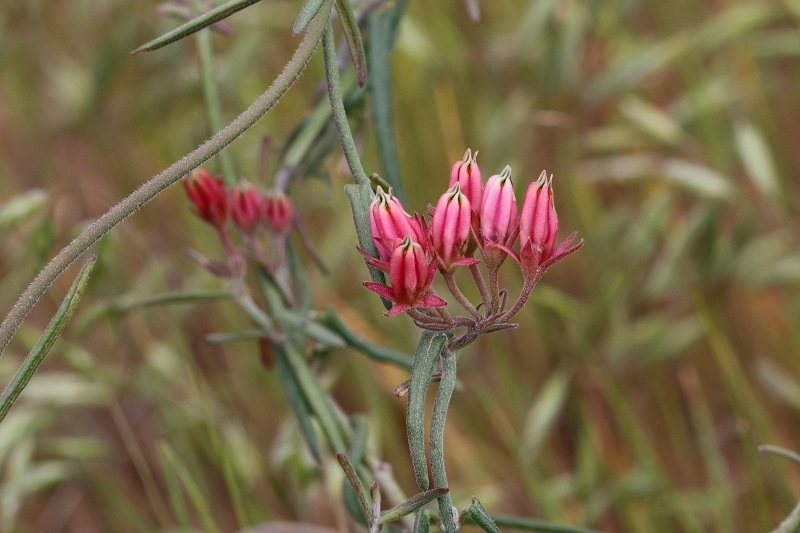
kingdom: Plantae
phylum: Tracheophyta
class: Magnoliopsida
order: Gentianales
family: Apocynaceae
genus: Microloma
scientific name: Microloma sagittatum
